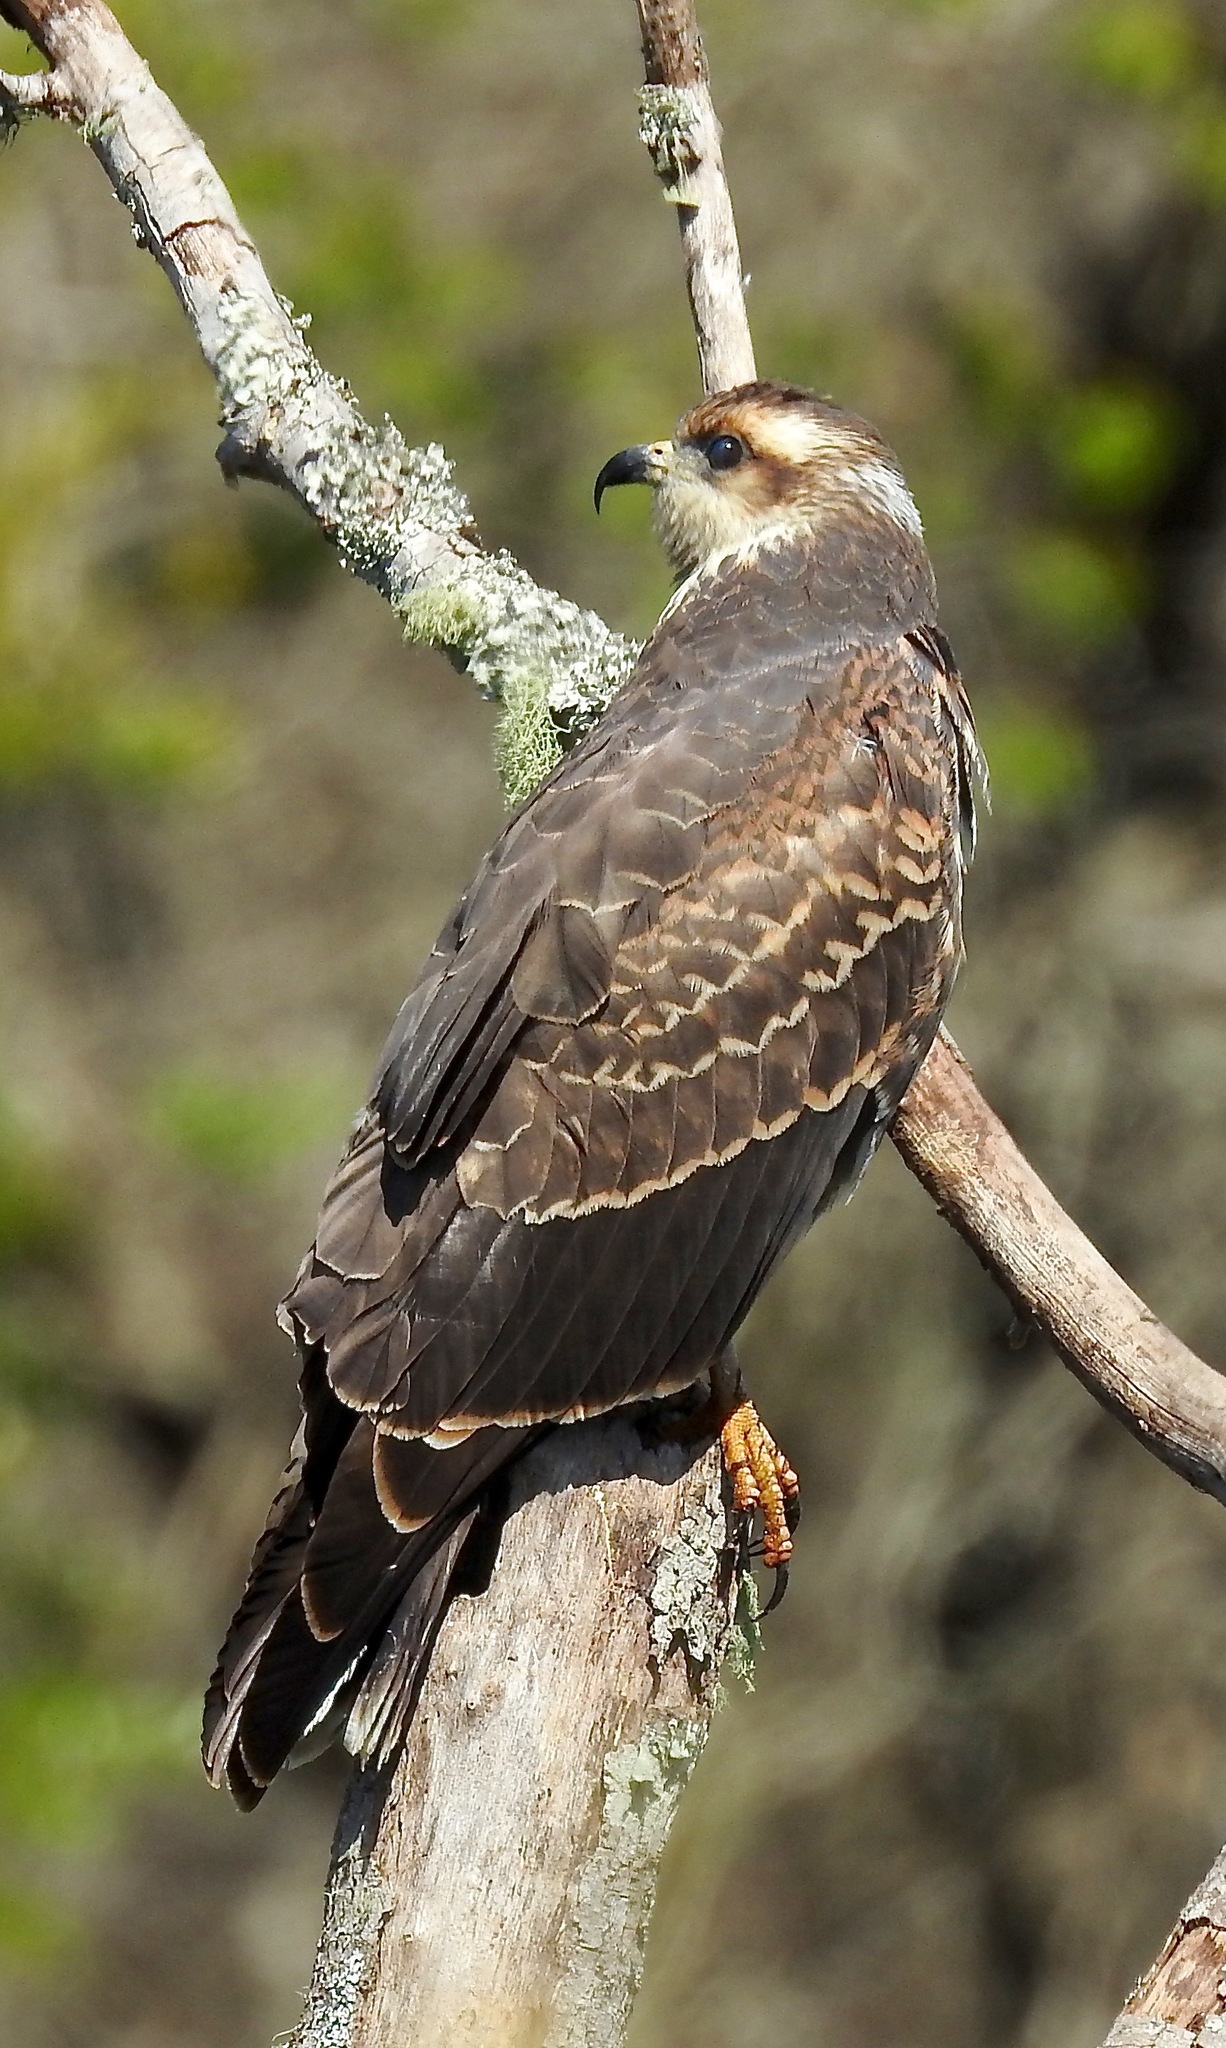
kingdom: Animalia
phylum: Chordata
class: Aves
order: Accipitriformes
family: Accipitridae
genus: Rostrhamus
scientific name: Rostrhamus sociabilis
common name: Snail kite
